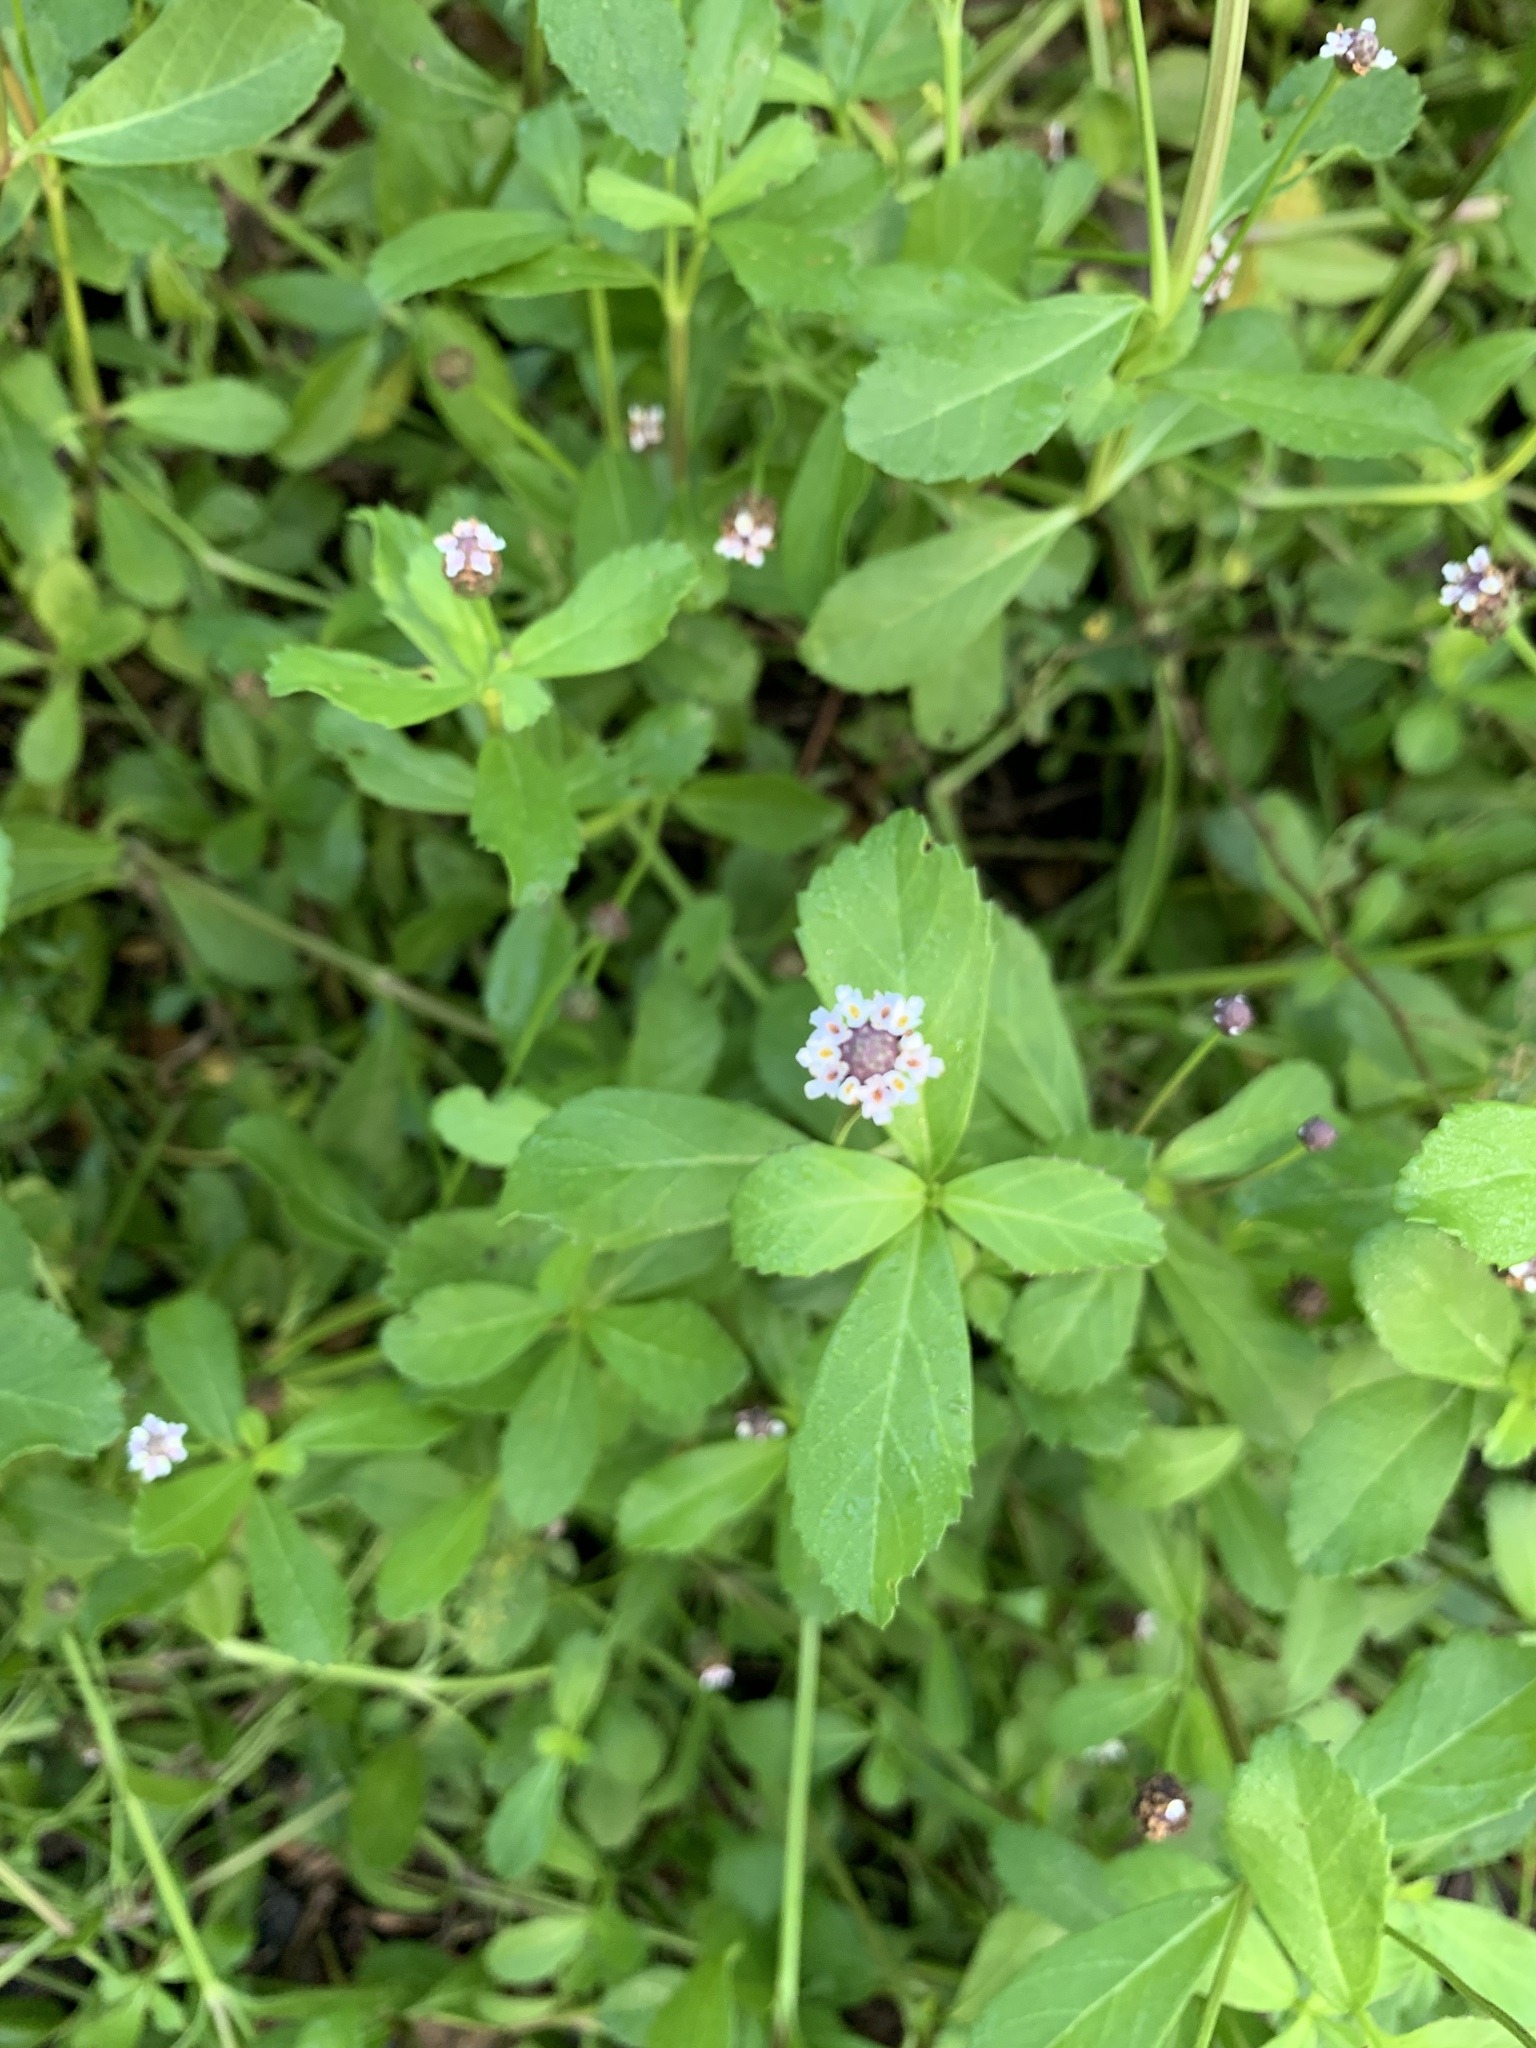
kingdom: Plantae
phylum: Tracheophyta
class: Magnoliopsida
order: Lamiales
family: Verbenaceae
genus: Phyla
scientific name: Phyla nodiflora
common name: Frogfruit
